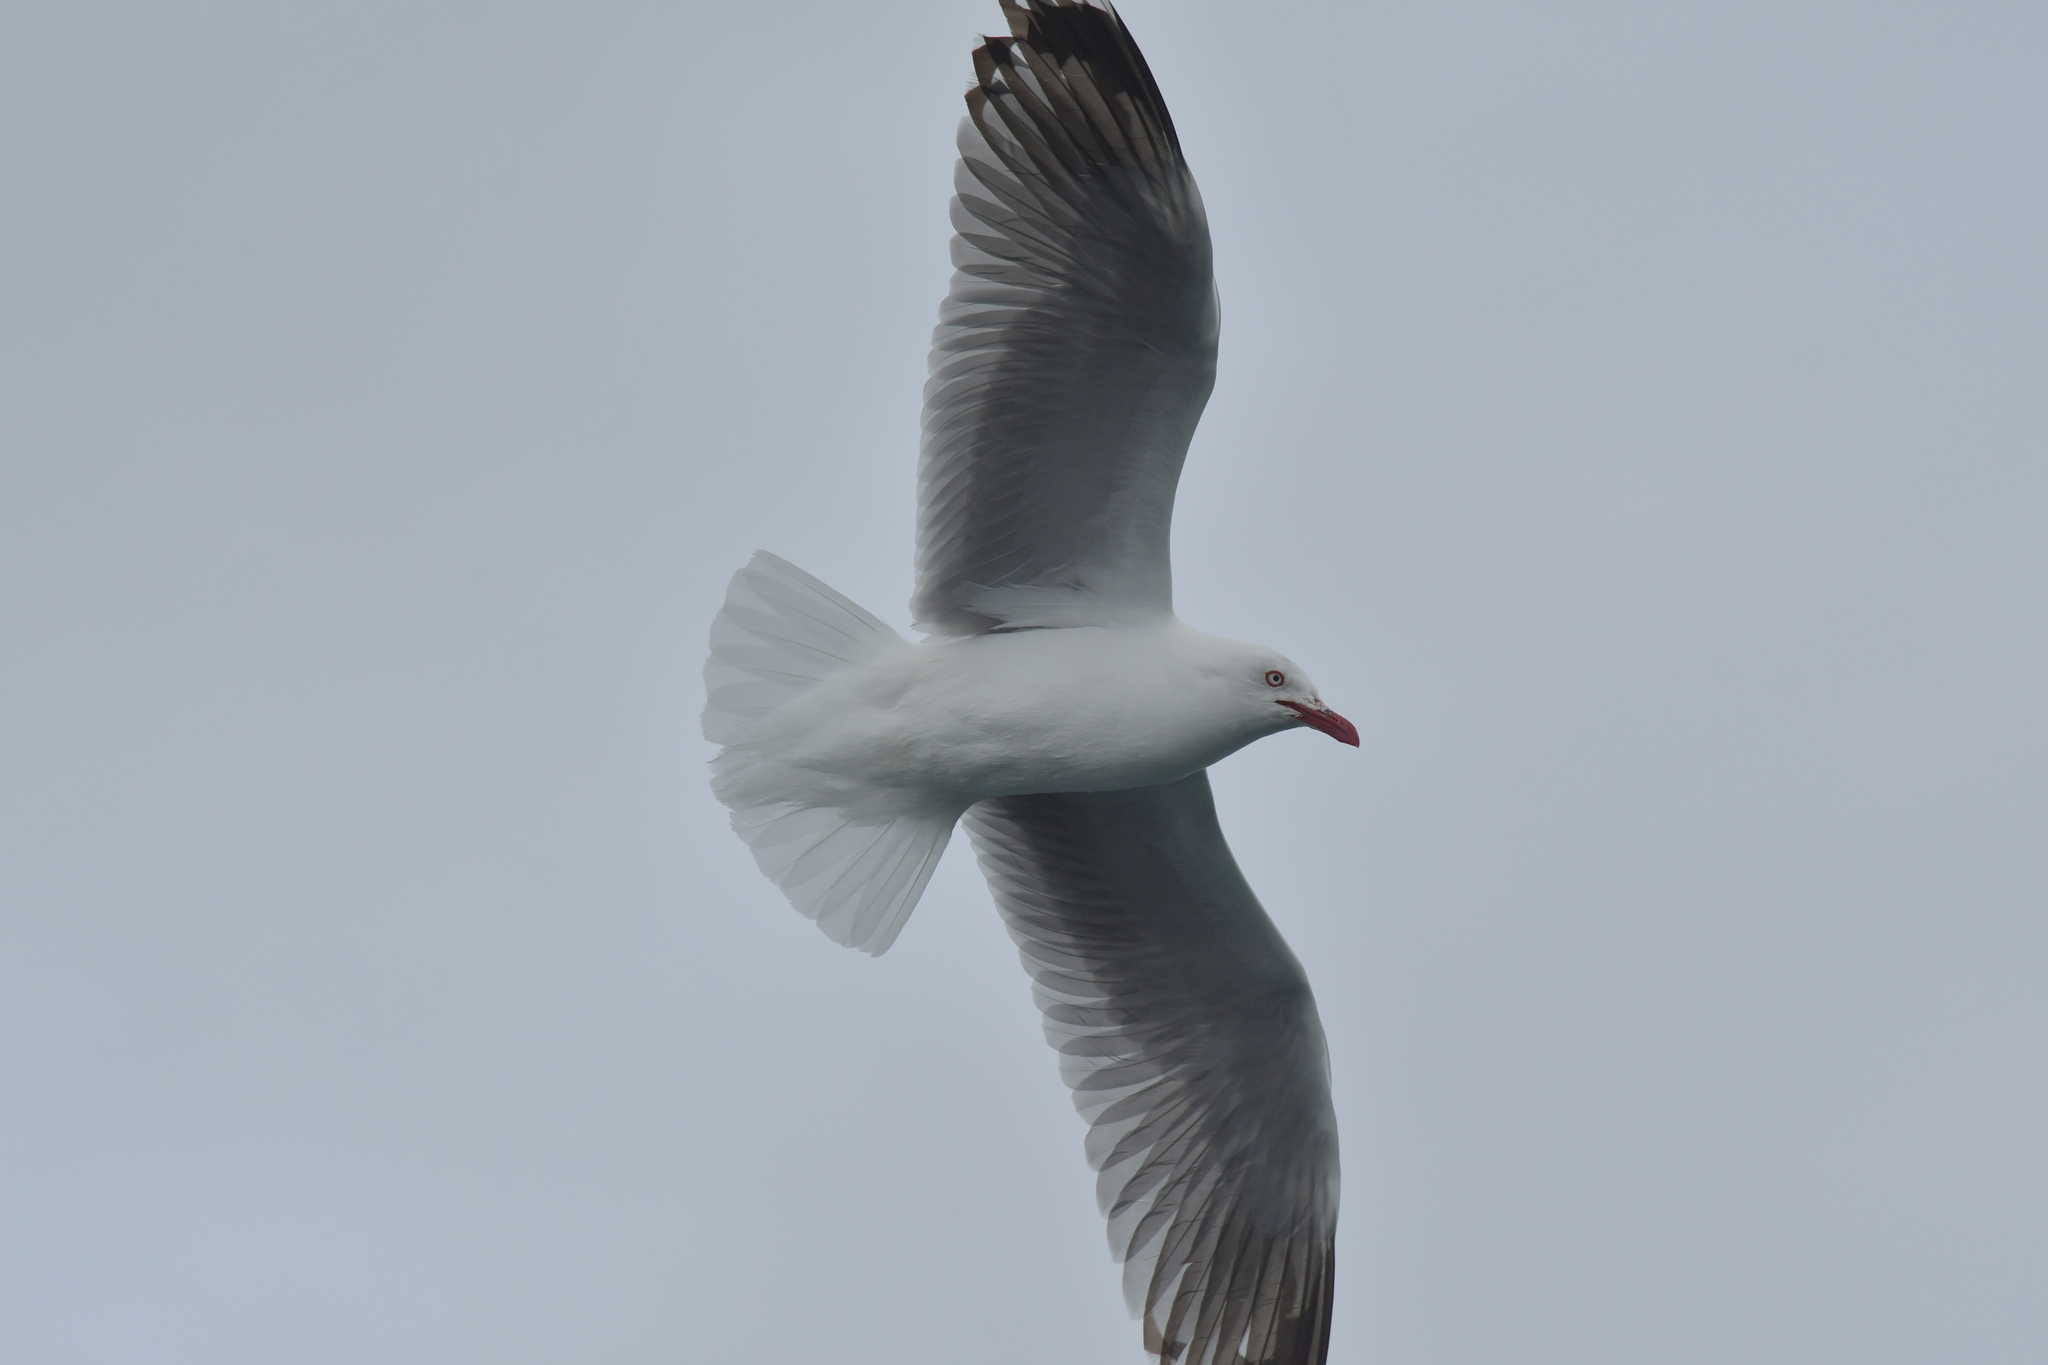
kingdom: Animalia
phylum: Chordata
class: Aves
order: Charadriiformes
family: Laridae
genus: Chroicocephalus
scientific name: Chroicocephalus novaehollandiae
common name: Silver gull
